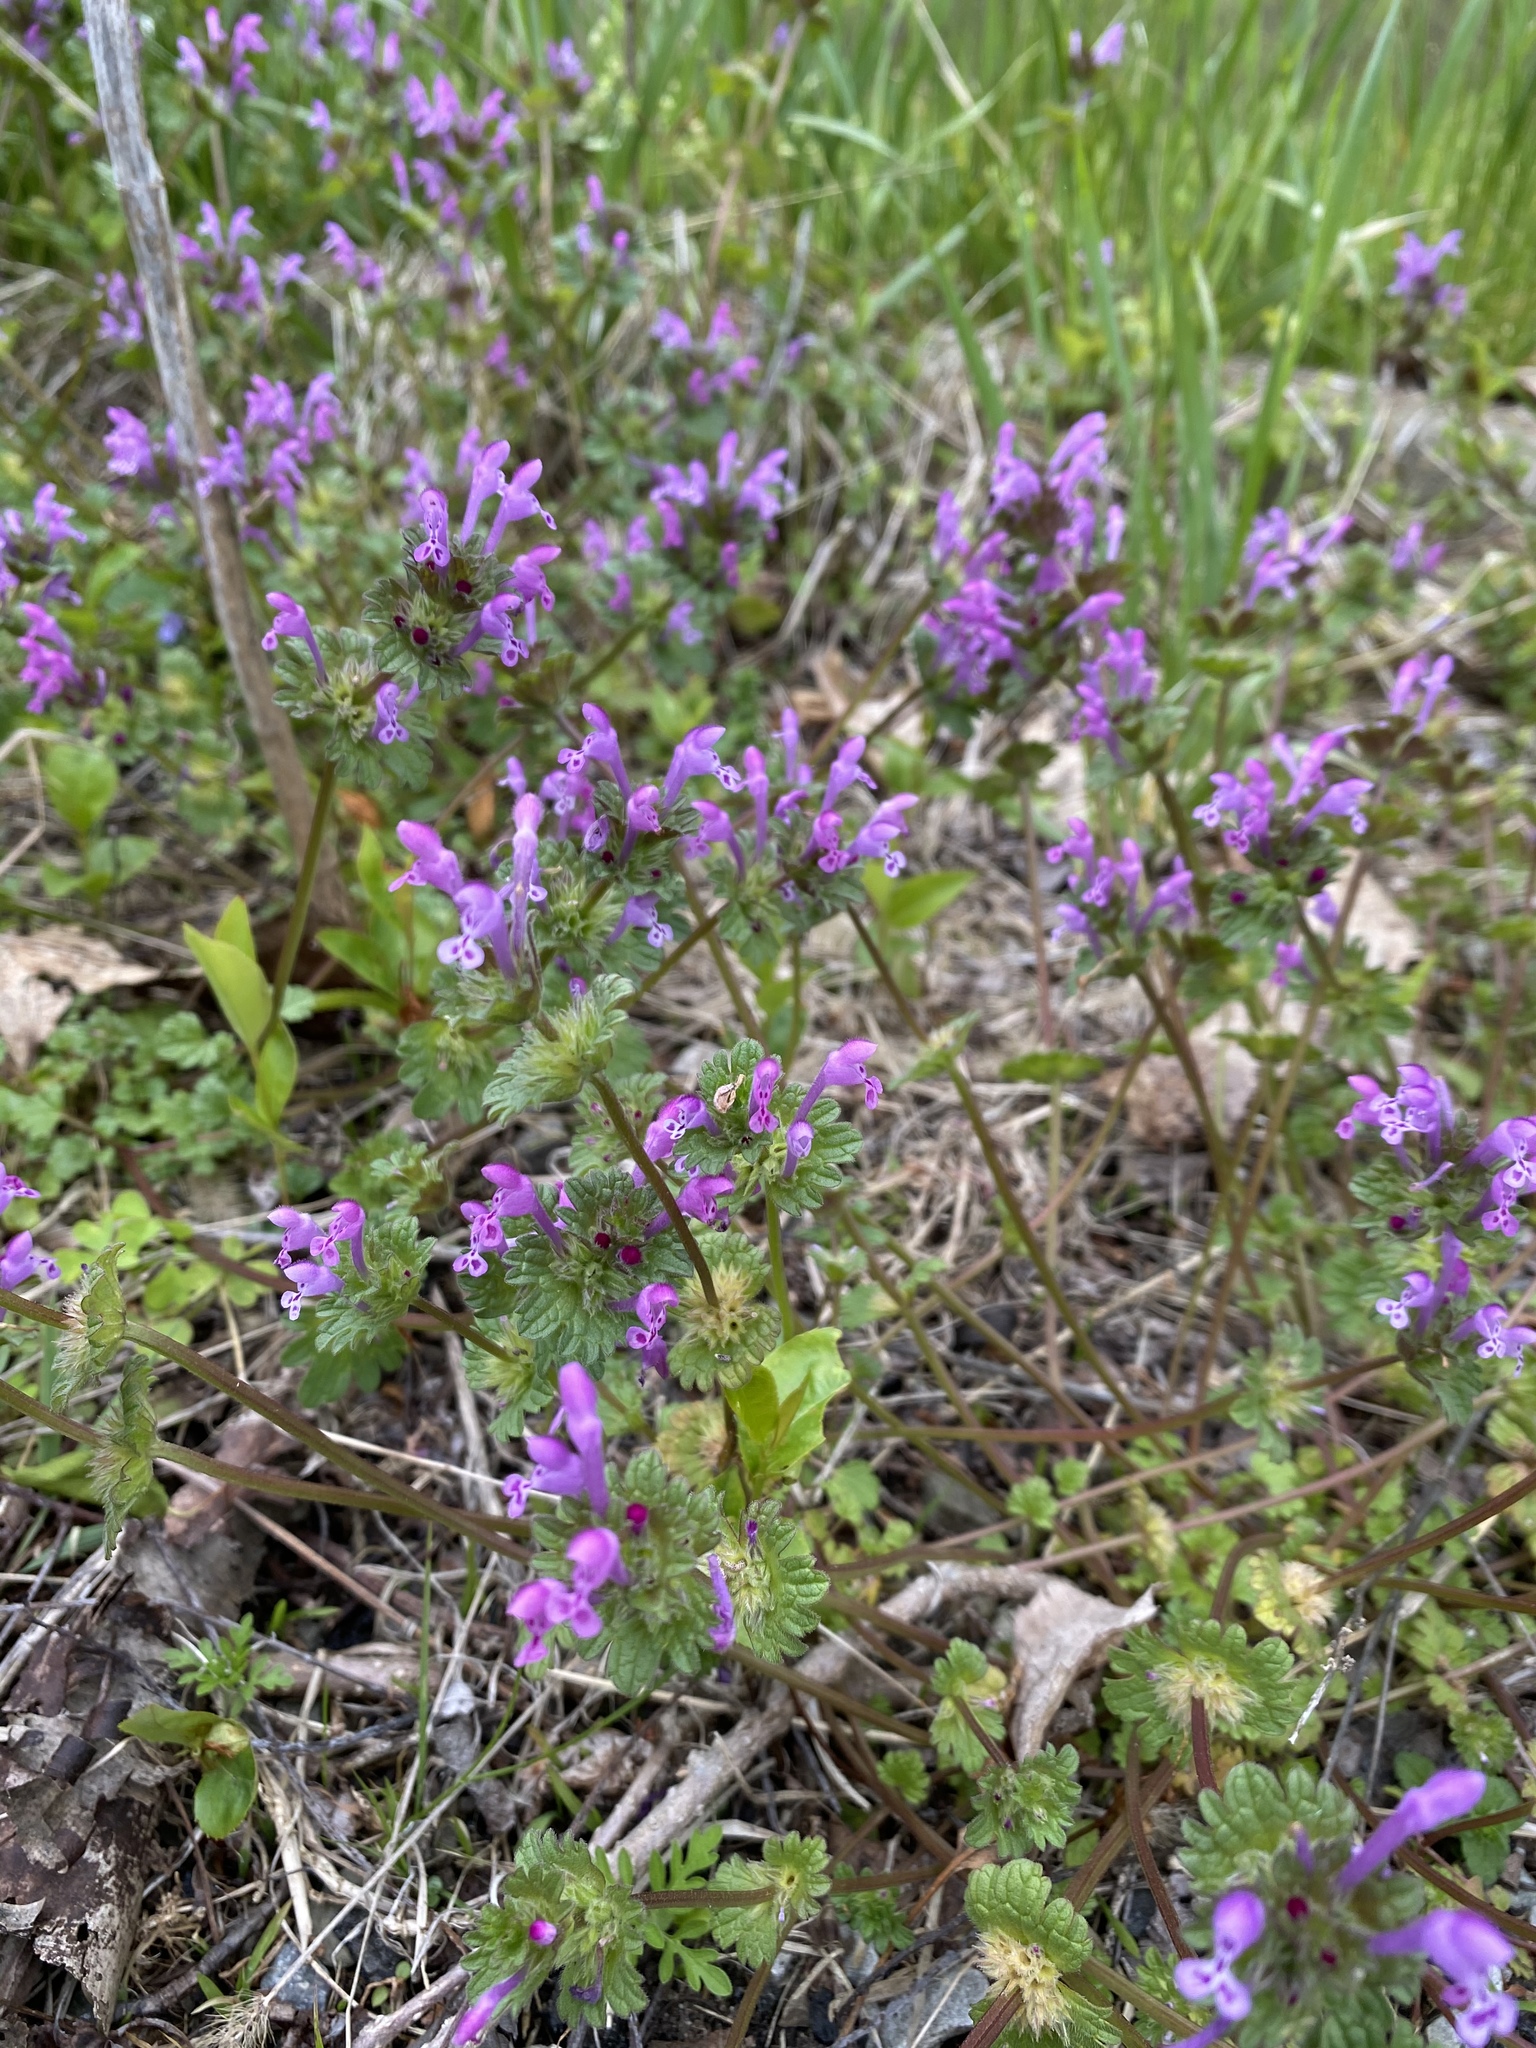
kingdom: Plantae
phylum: Tracheophyta
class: Magnoliopsida
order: Lamiales
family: Lamiaceae
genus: Lamium
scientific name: Lamium amplexicaule
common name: Henbit dead-nettle
